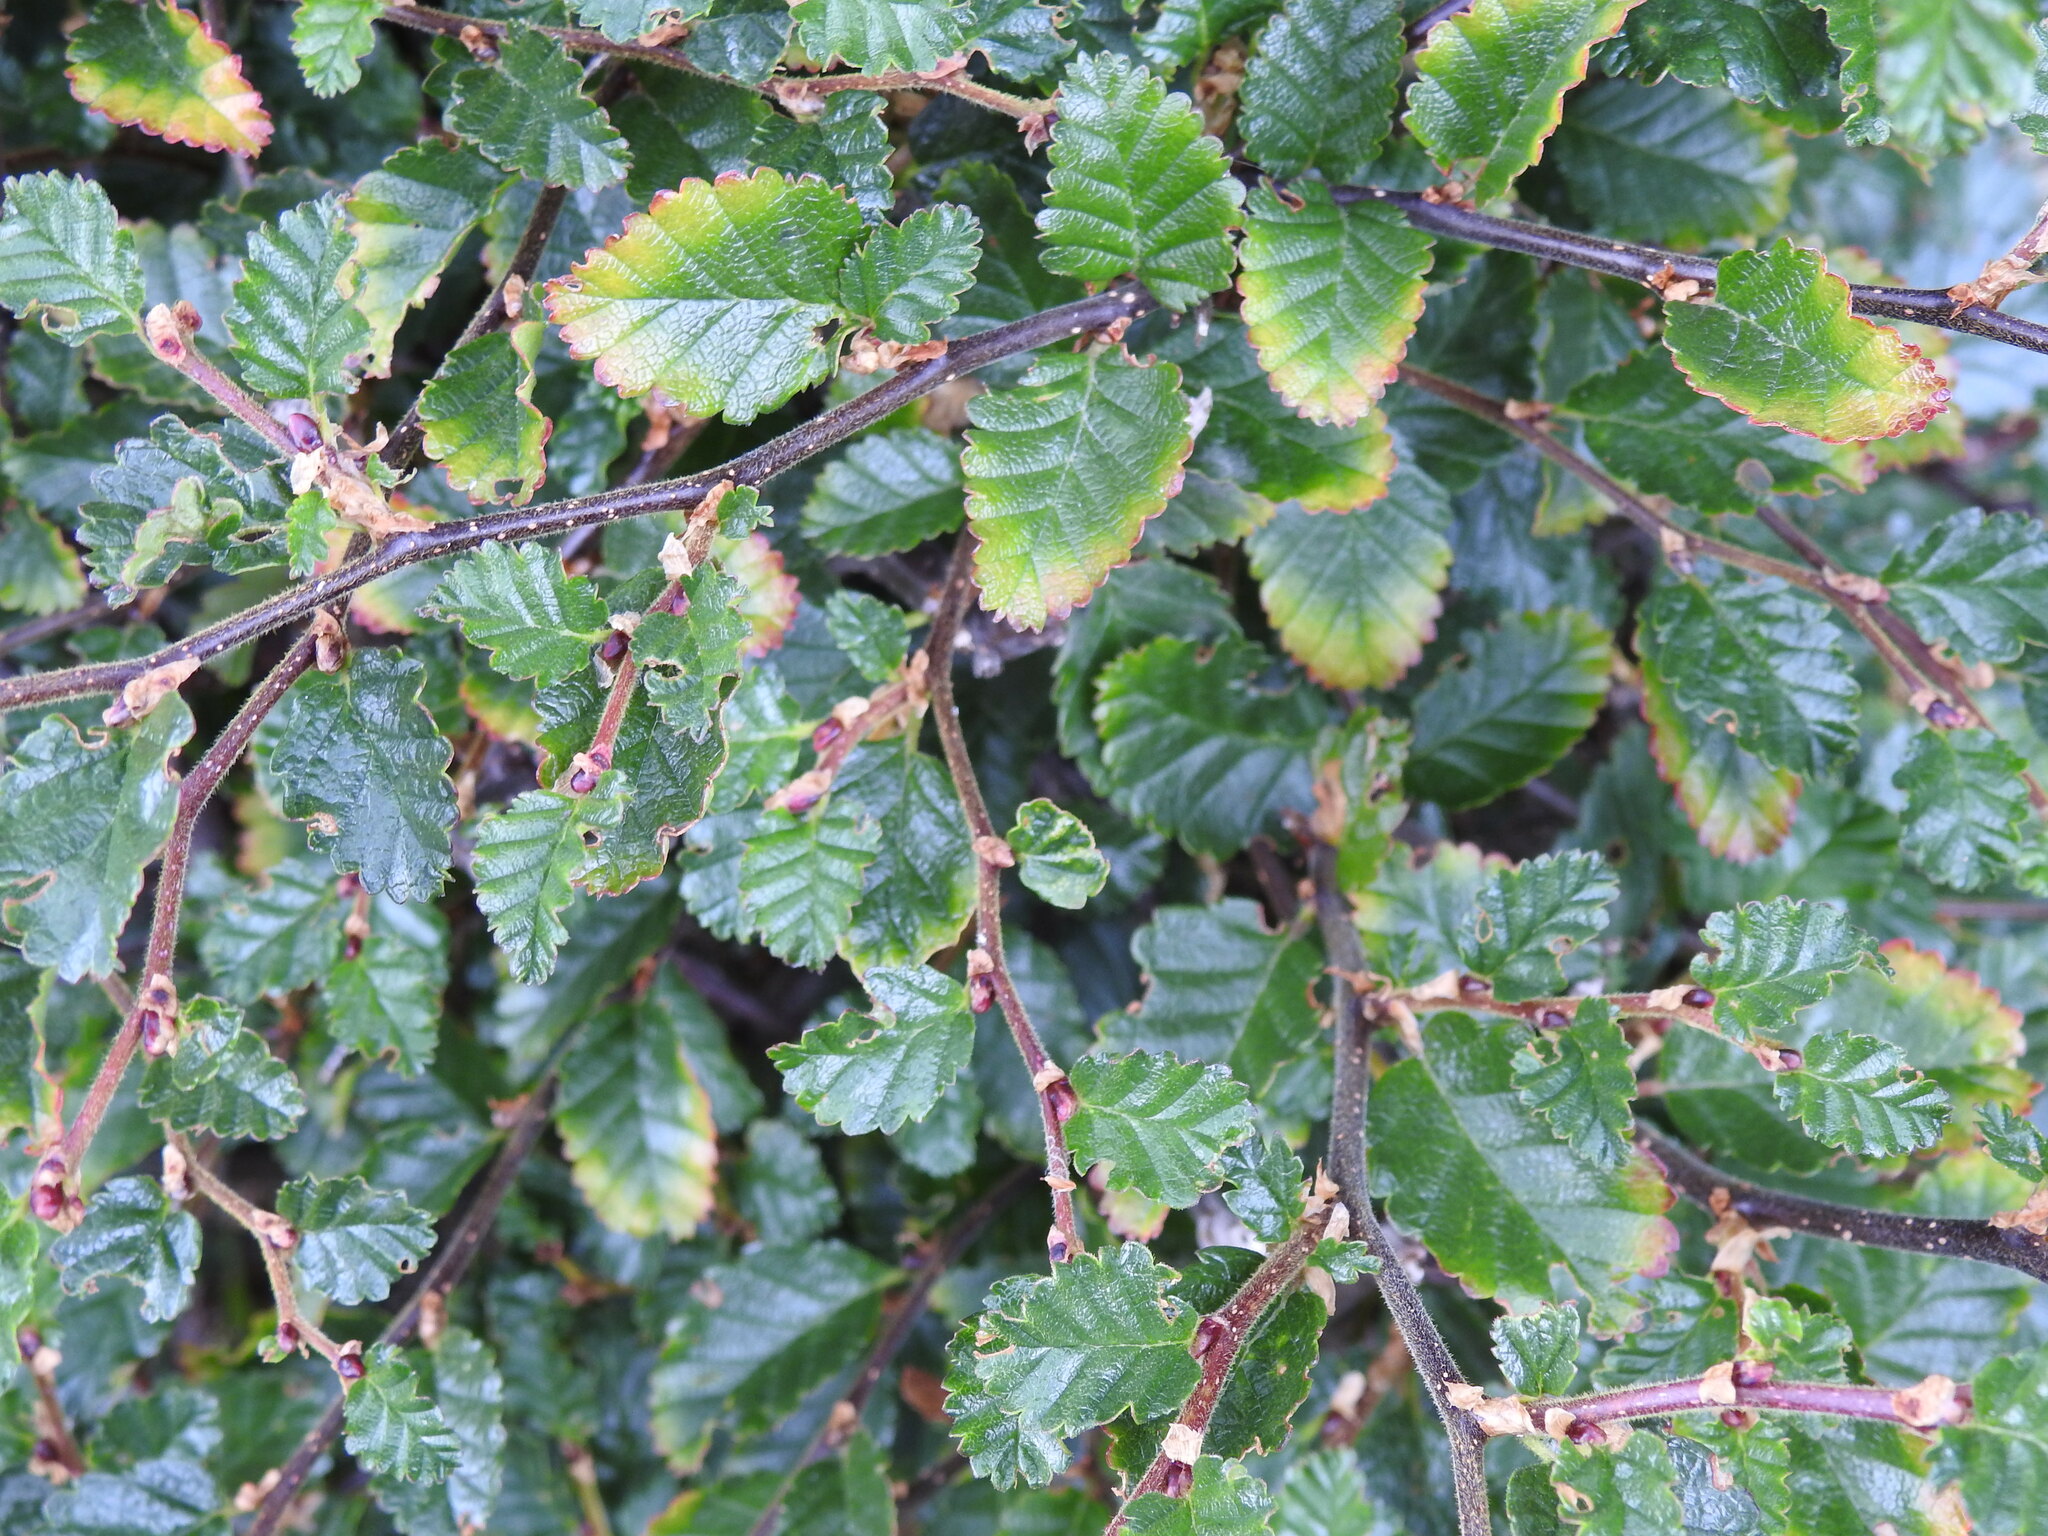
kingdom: Plantae
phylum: Tracheophyta
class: Magnoliopsida
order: Fagales
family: Nothofagaceae
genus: Nothofagus
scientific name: Nothofagus pumilio
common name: Lenga beech
